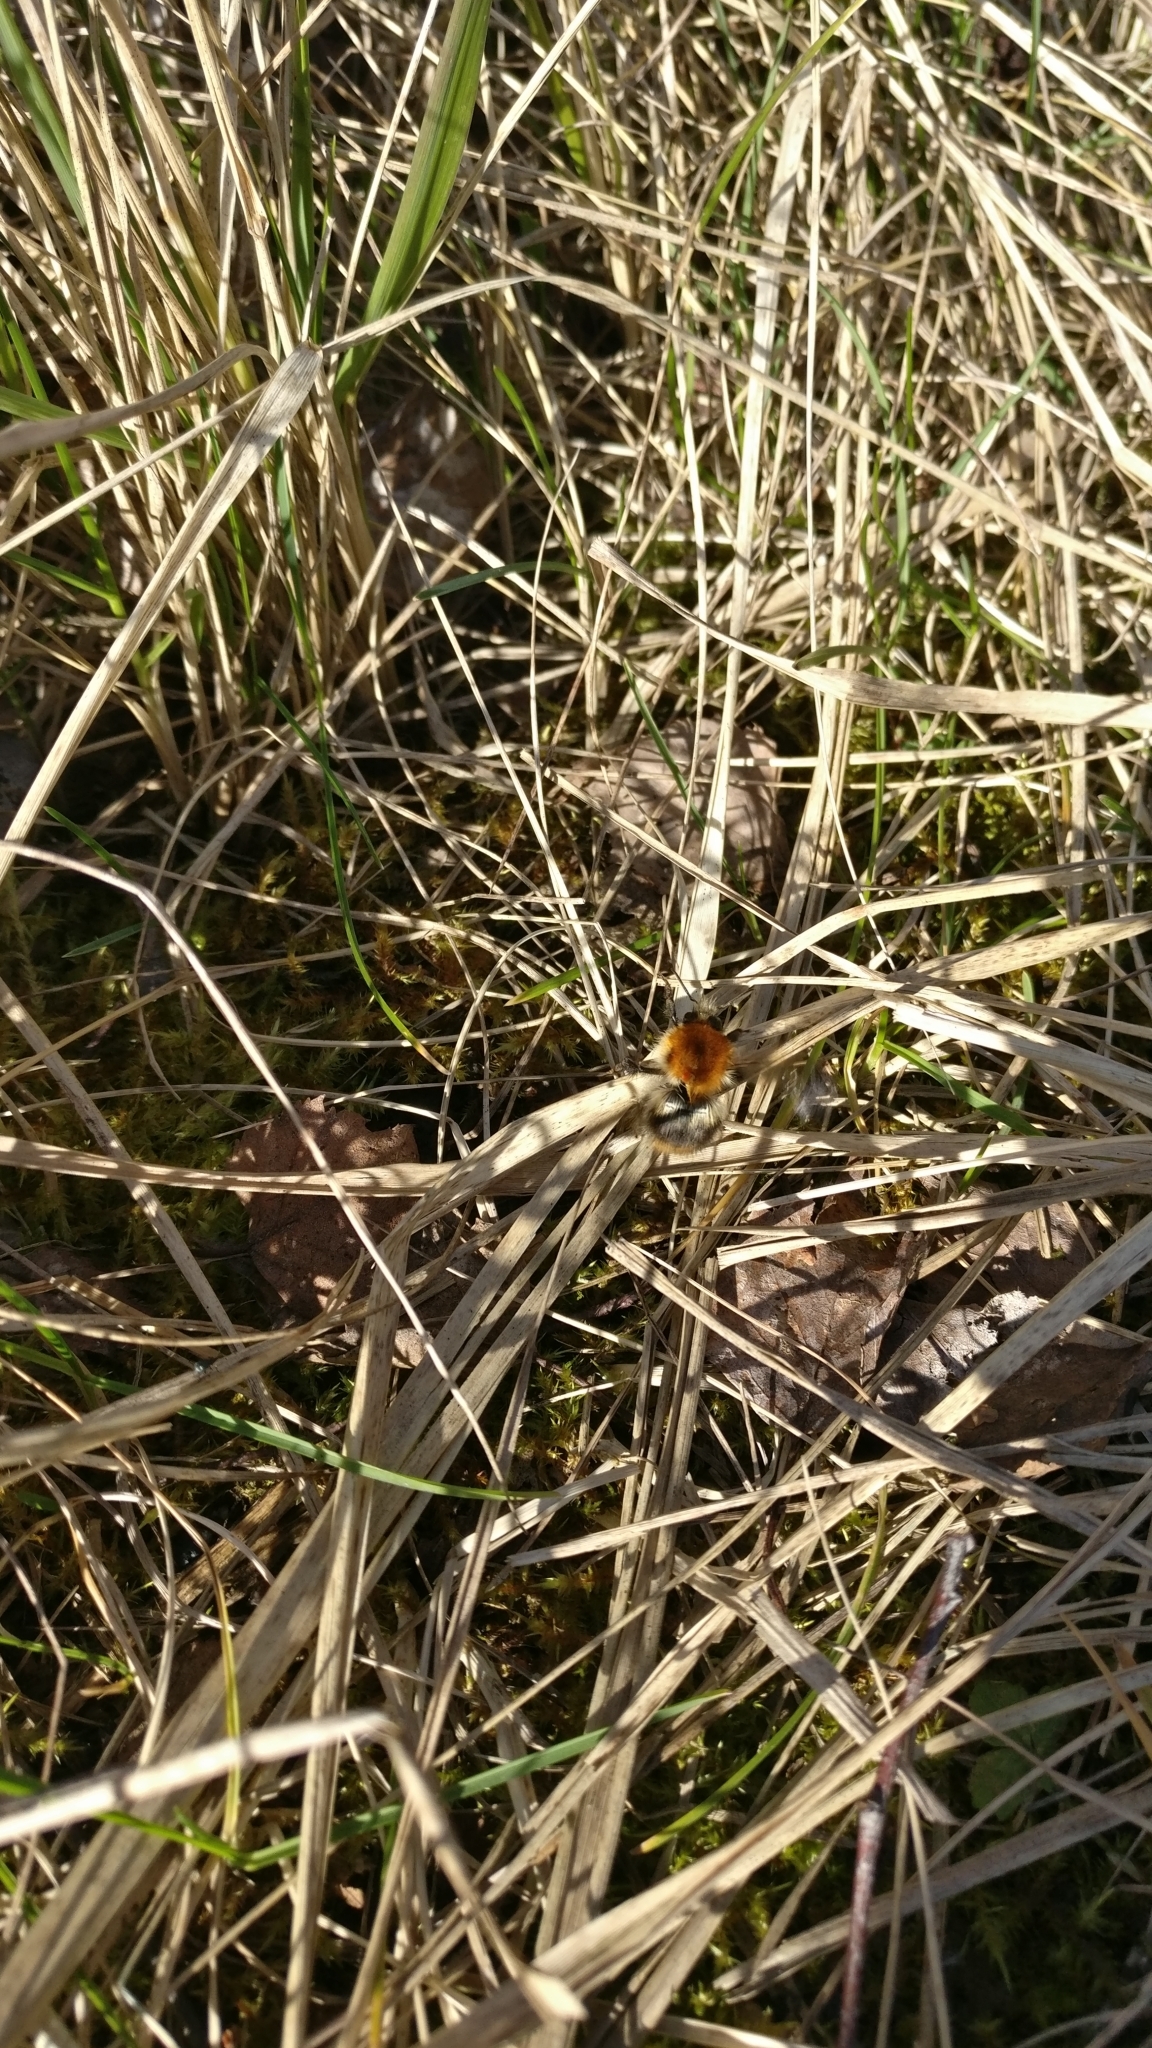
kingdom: Animalia
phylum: Arthropoda
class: Insecta
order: Hymenoptera
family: Apidae
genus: Bombus
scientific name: Bombus pascuorum
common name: Common carder bee
